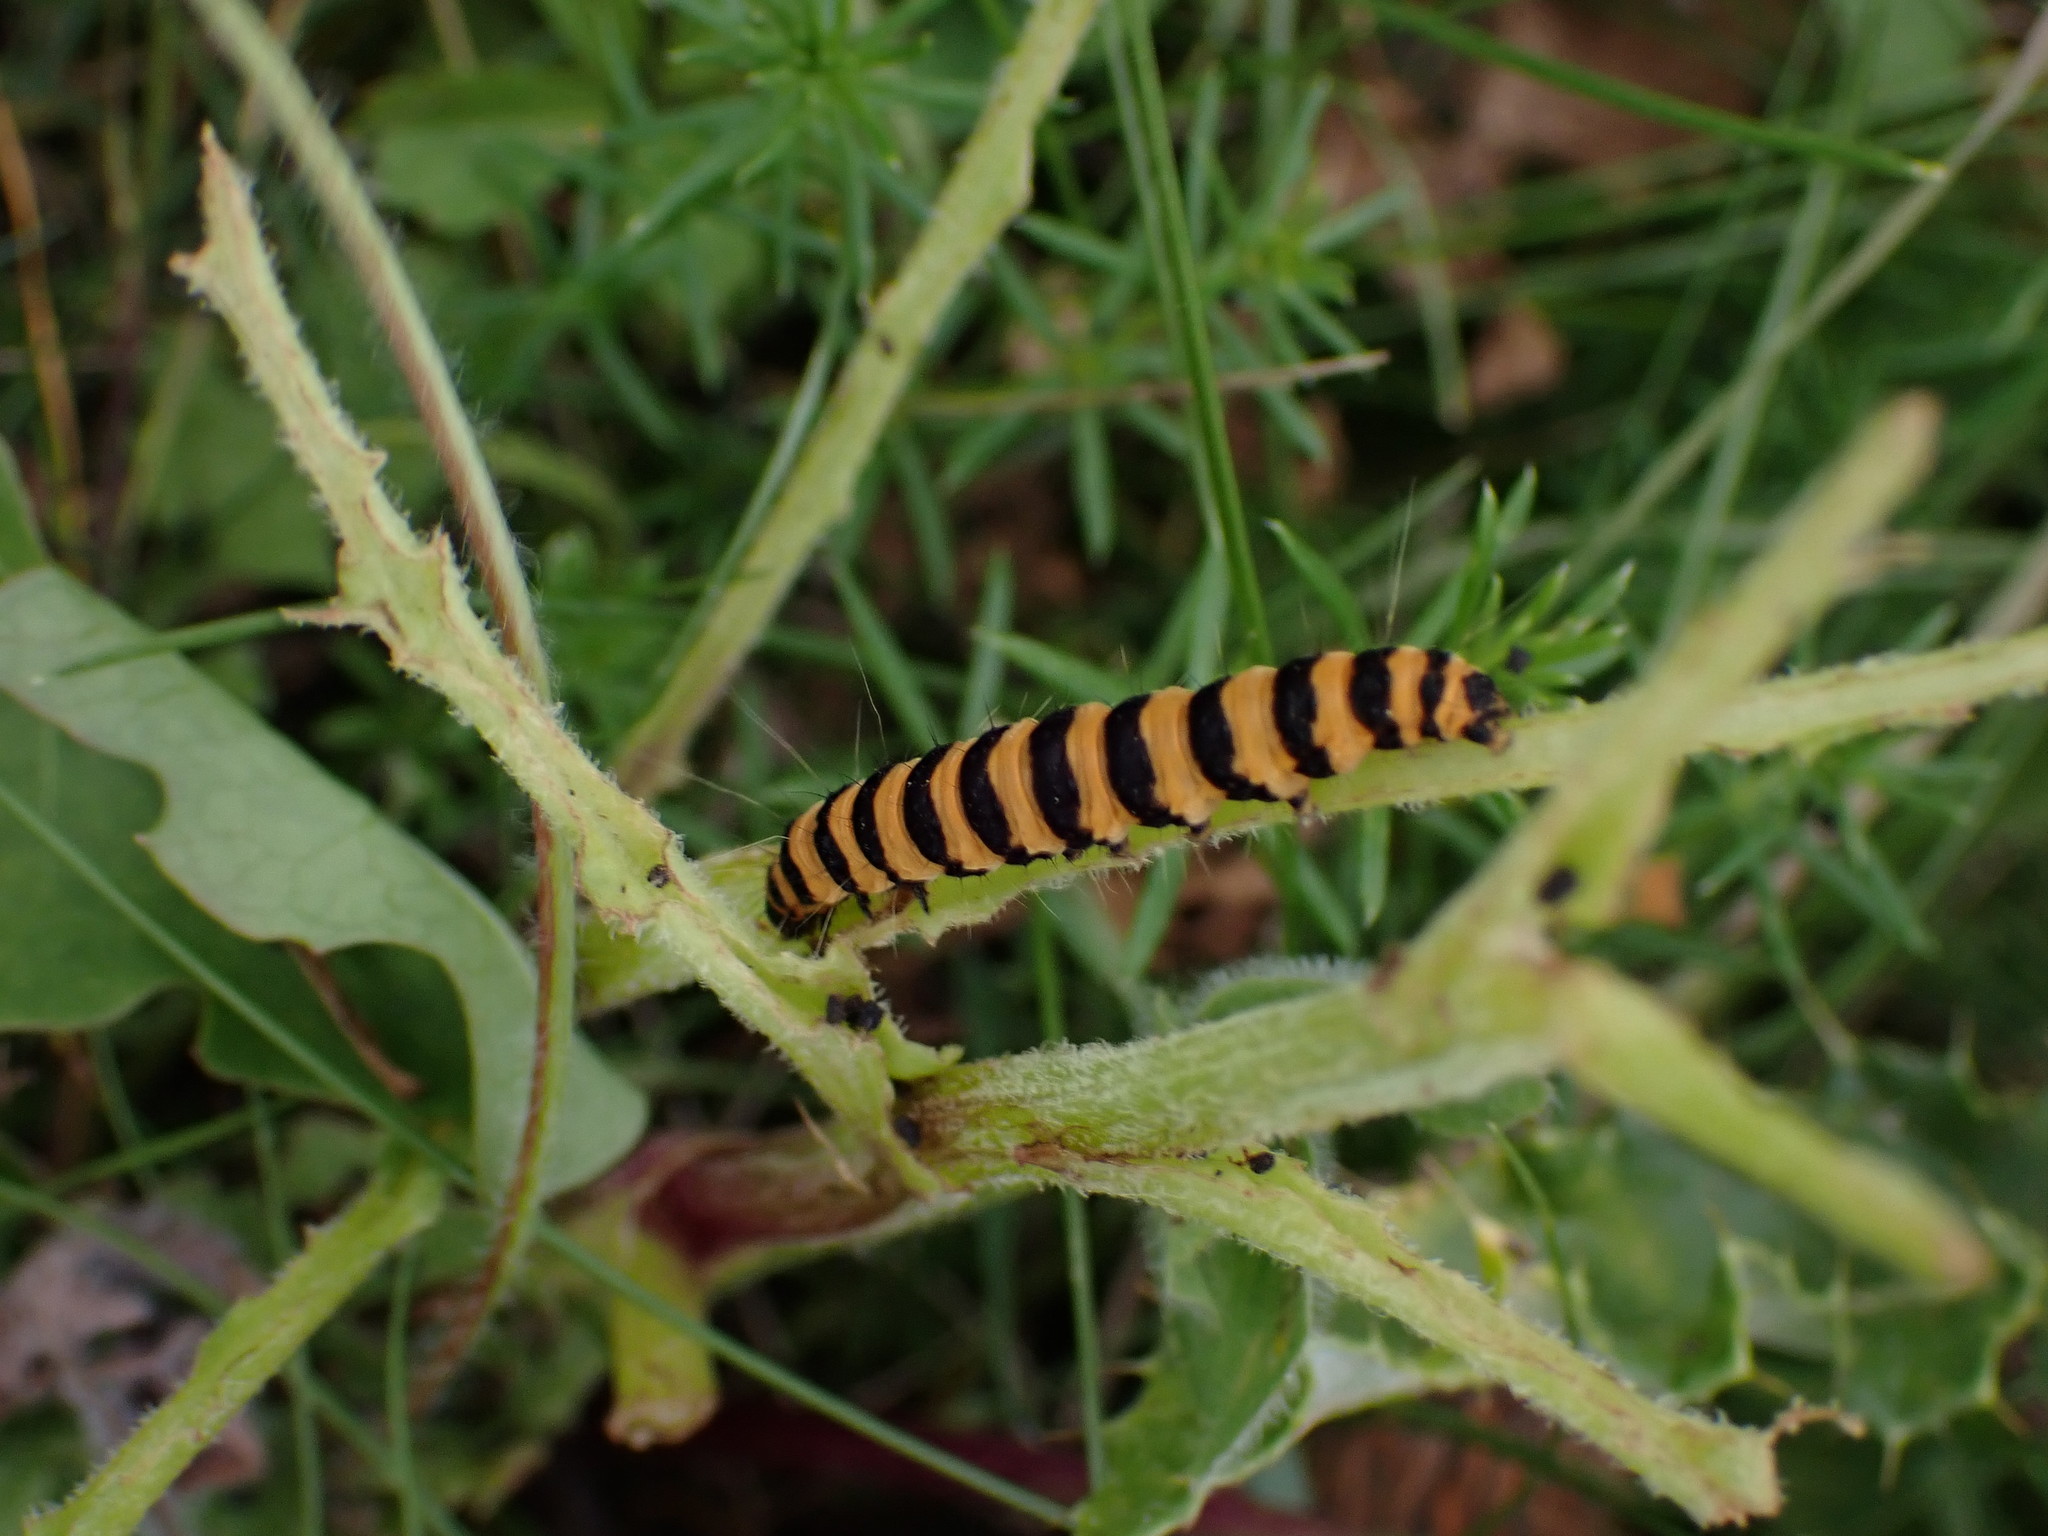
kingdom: Animalia
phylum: Arthropoda
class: Insecta
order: Lepidoptera
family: Erebidae
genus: Tyria
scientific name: Tyria jacobaeae
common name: Cinnabar
